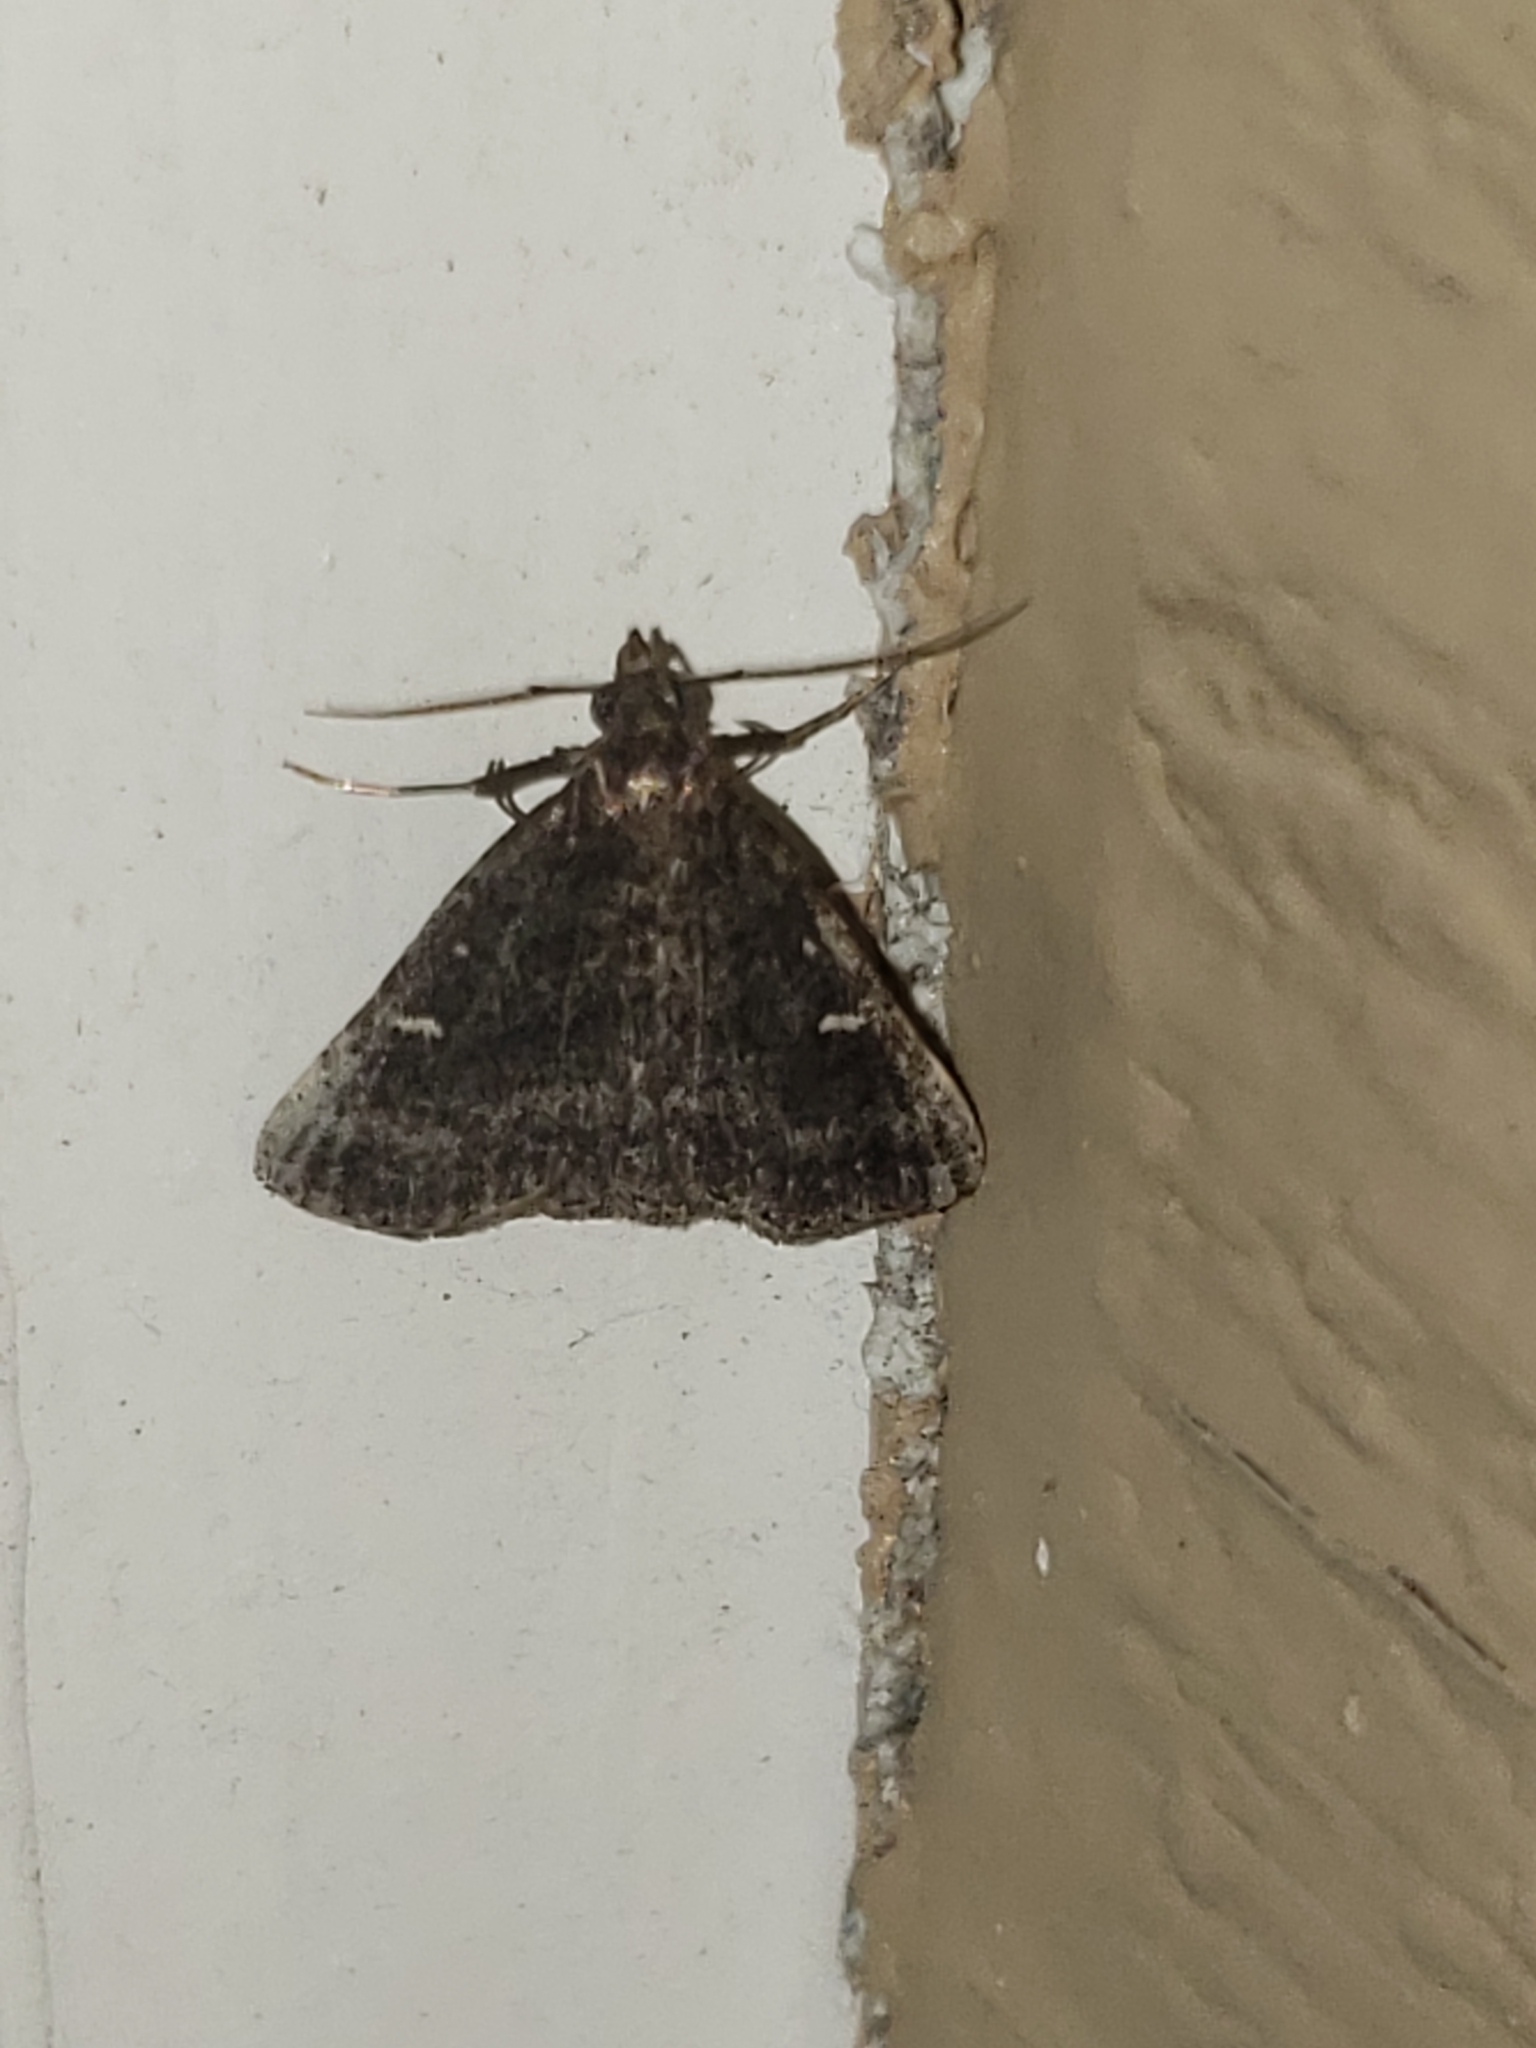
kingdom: Animalia
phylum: Arthropoda
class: Insecta
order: Lepidoptera
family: Erebidae
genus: Tetanolita
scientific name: Tetanolita mynesalis
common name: Smoky tetanolita moth
